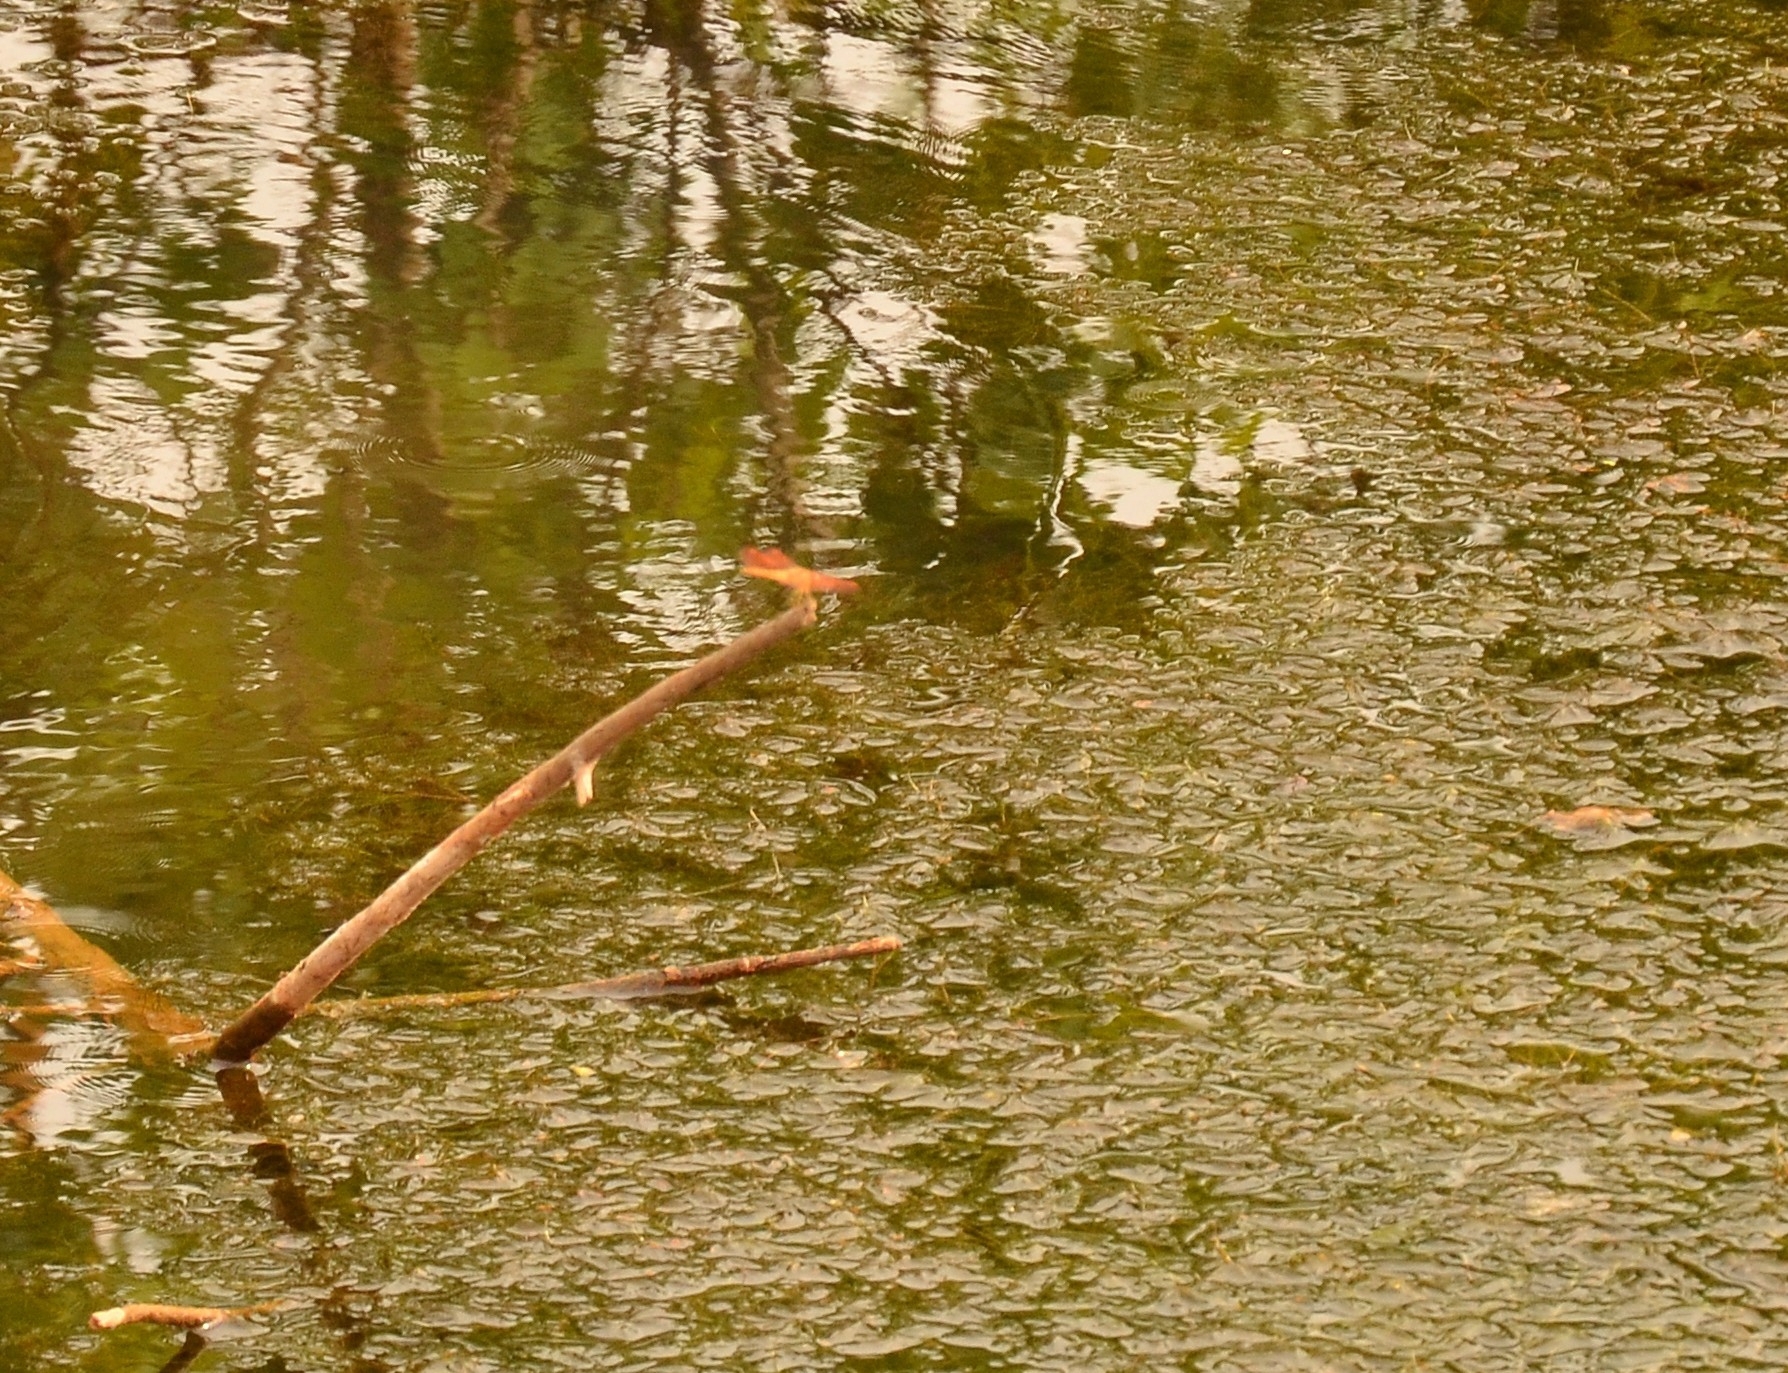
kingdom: Animalia
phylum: Arthropoda
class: Insecta
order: Odonata
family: Libellulidae
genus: Brachythemis
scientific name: Brachythemis contaminata
